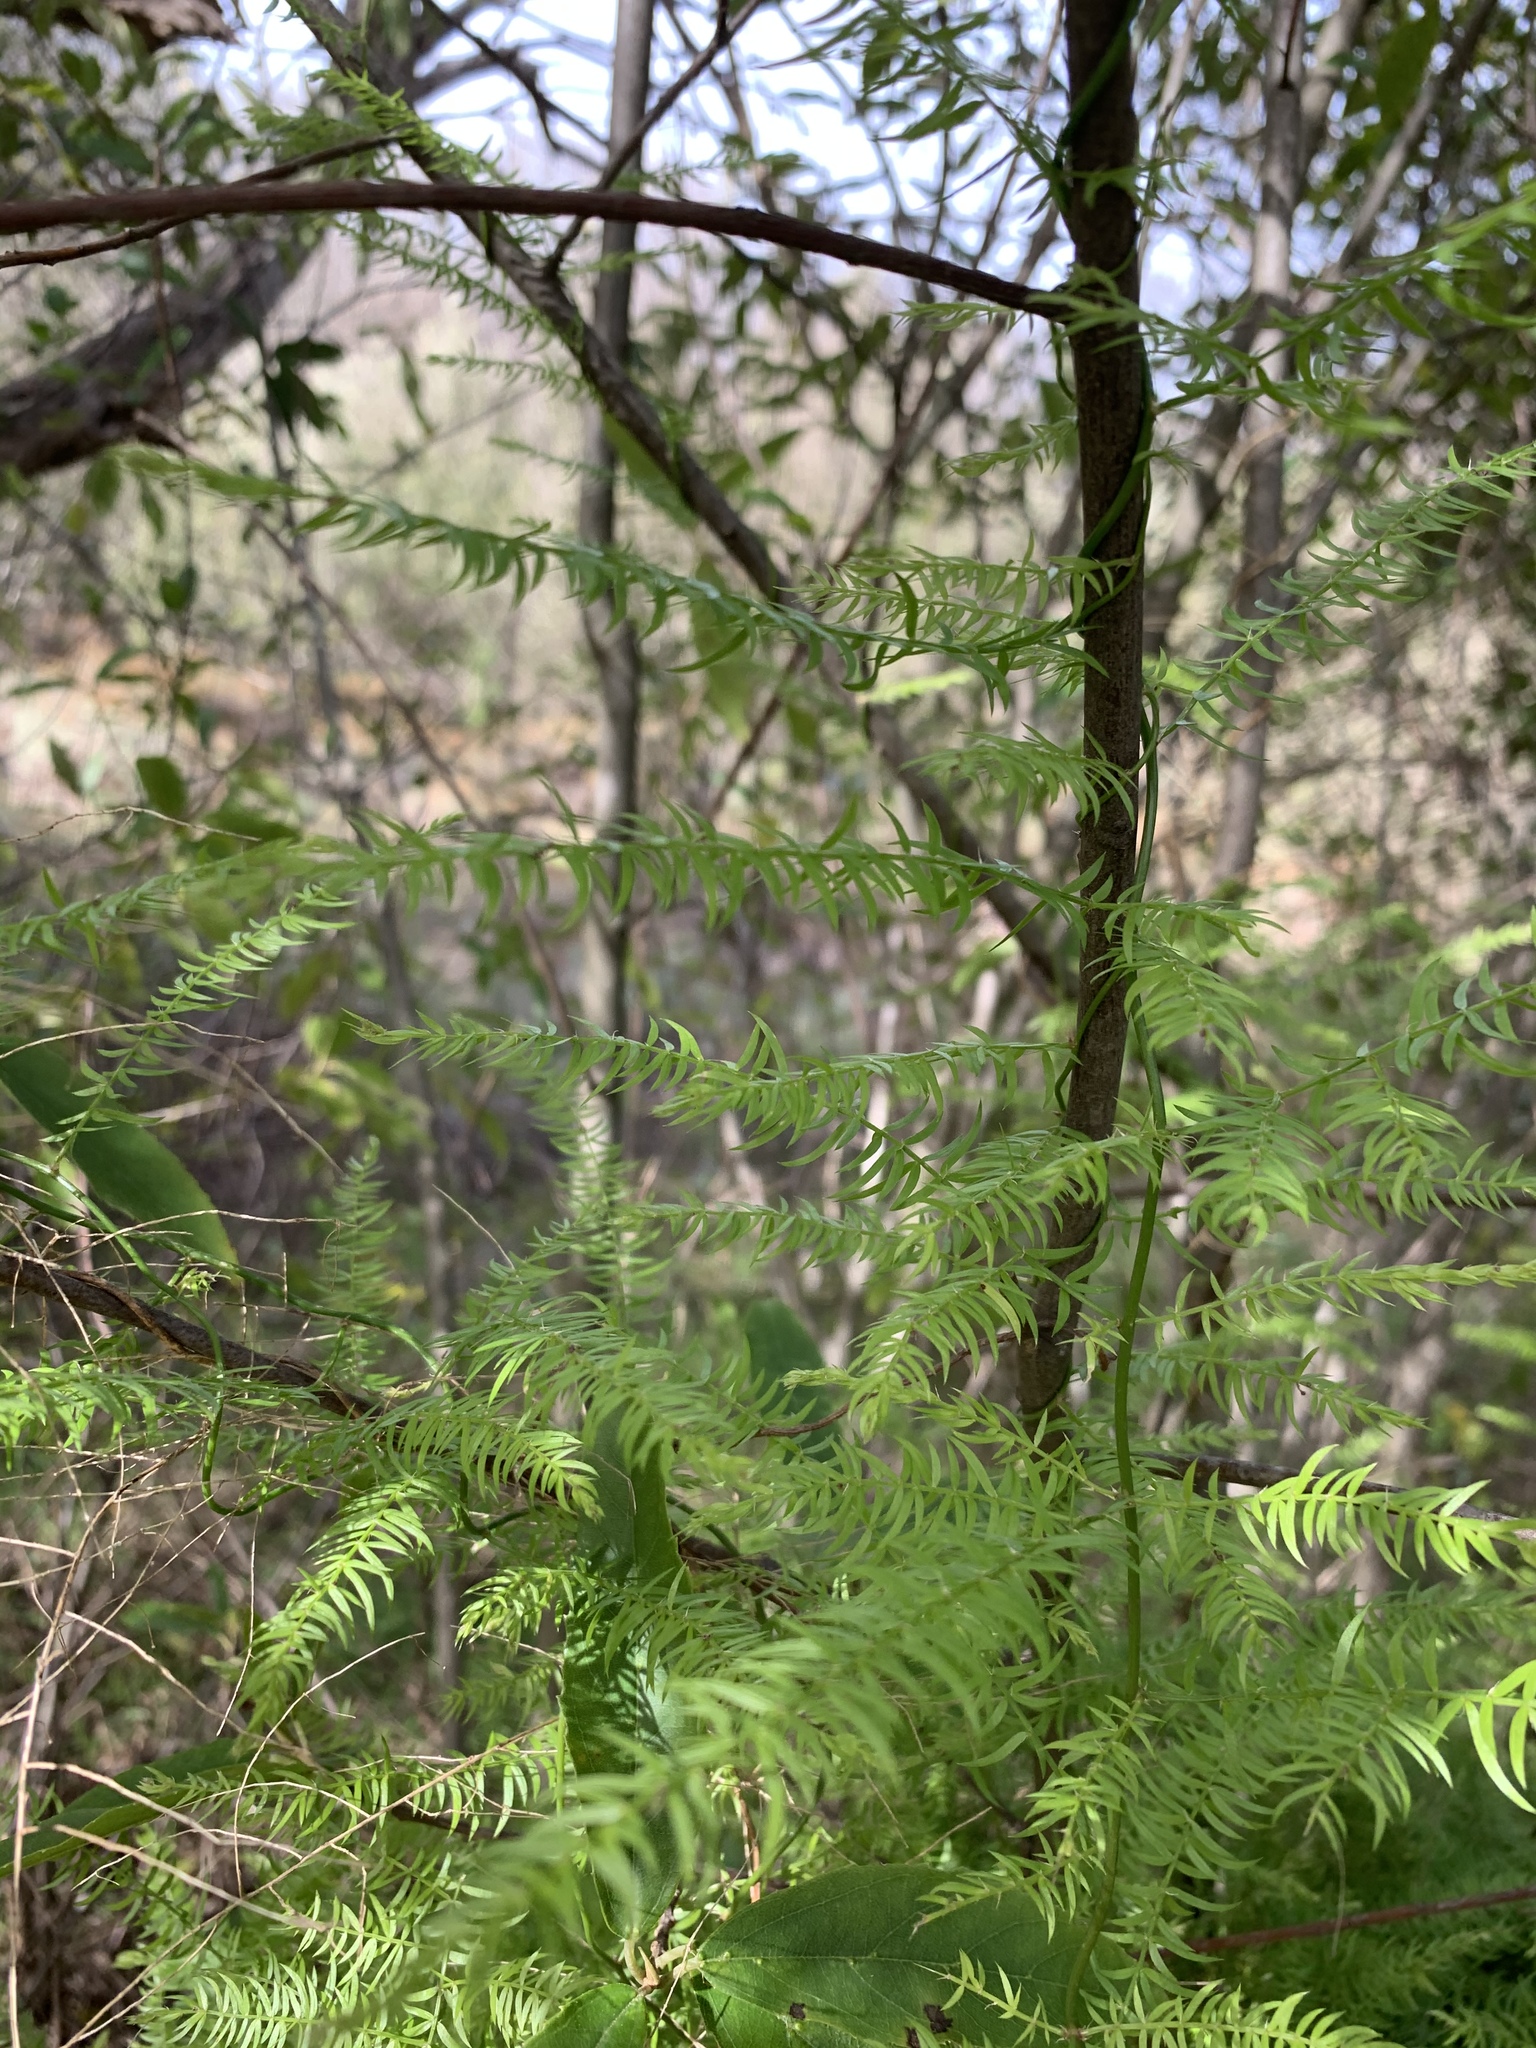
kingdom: Plantae
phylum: Tracheophyta
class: Liliopsida
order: Asparagales
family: Asparagaceae
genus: Asparagus
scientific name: Asparagus scandens
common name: Asparagus-fern
